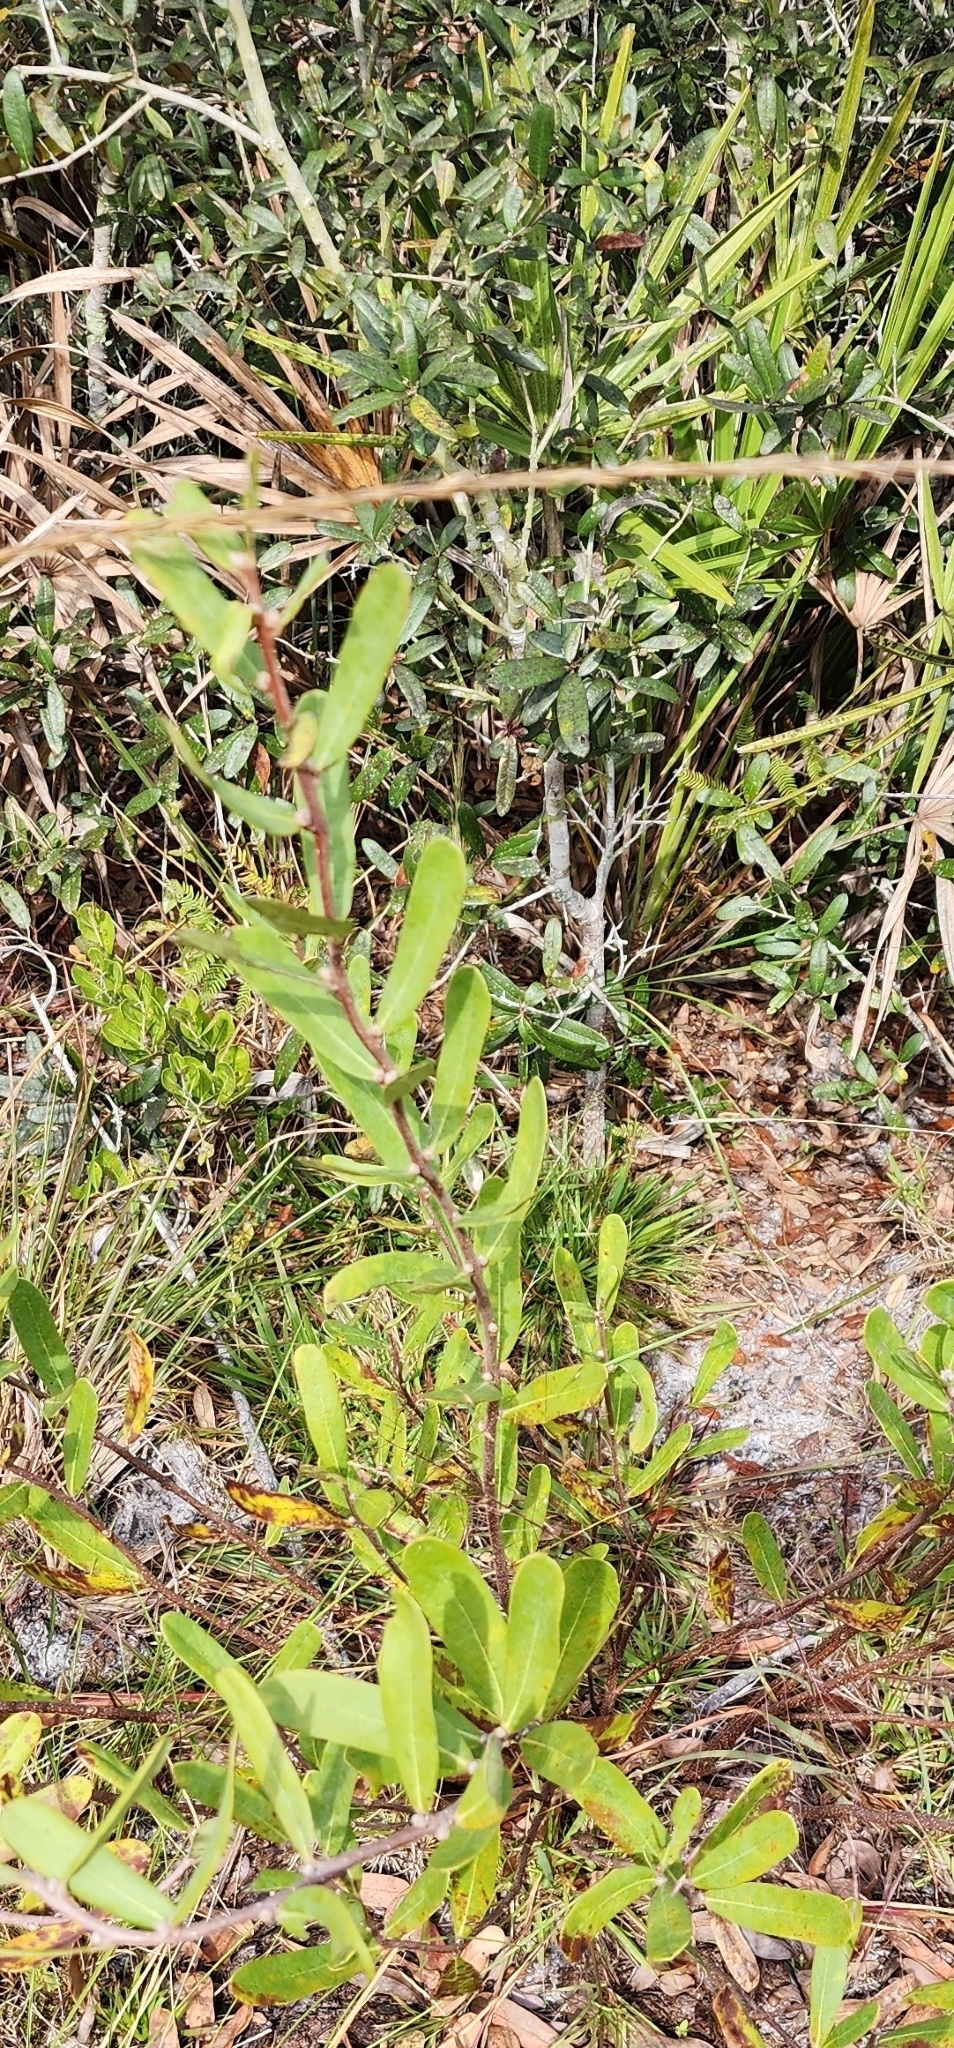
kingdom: Plantae
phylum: Tracheophyta
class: Magnoliopsida
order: Magnoliales
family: Annonaceae
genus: Asimina
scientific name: Asimina reticulata
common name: Flag pawpaw
